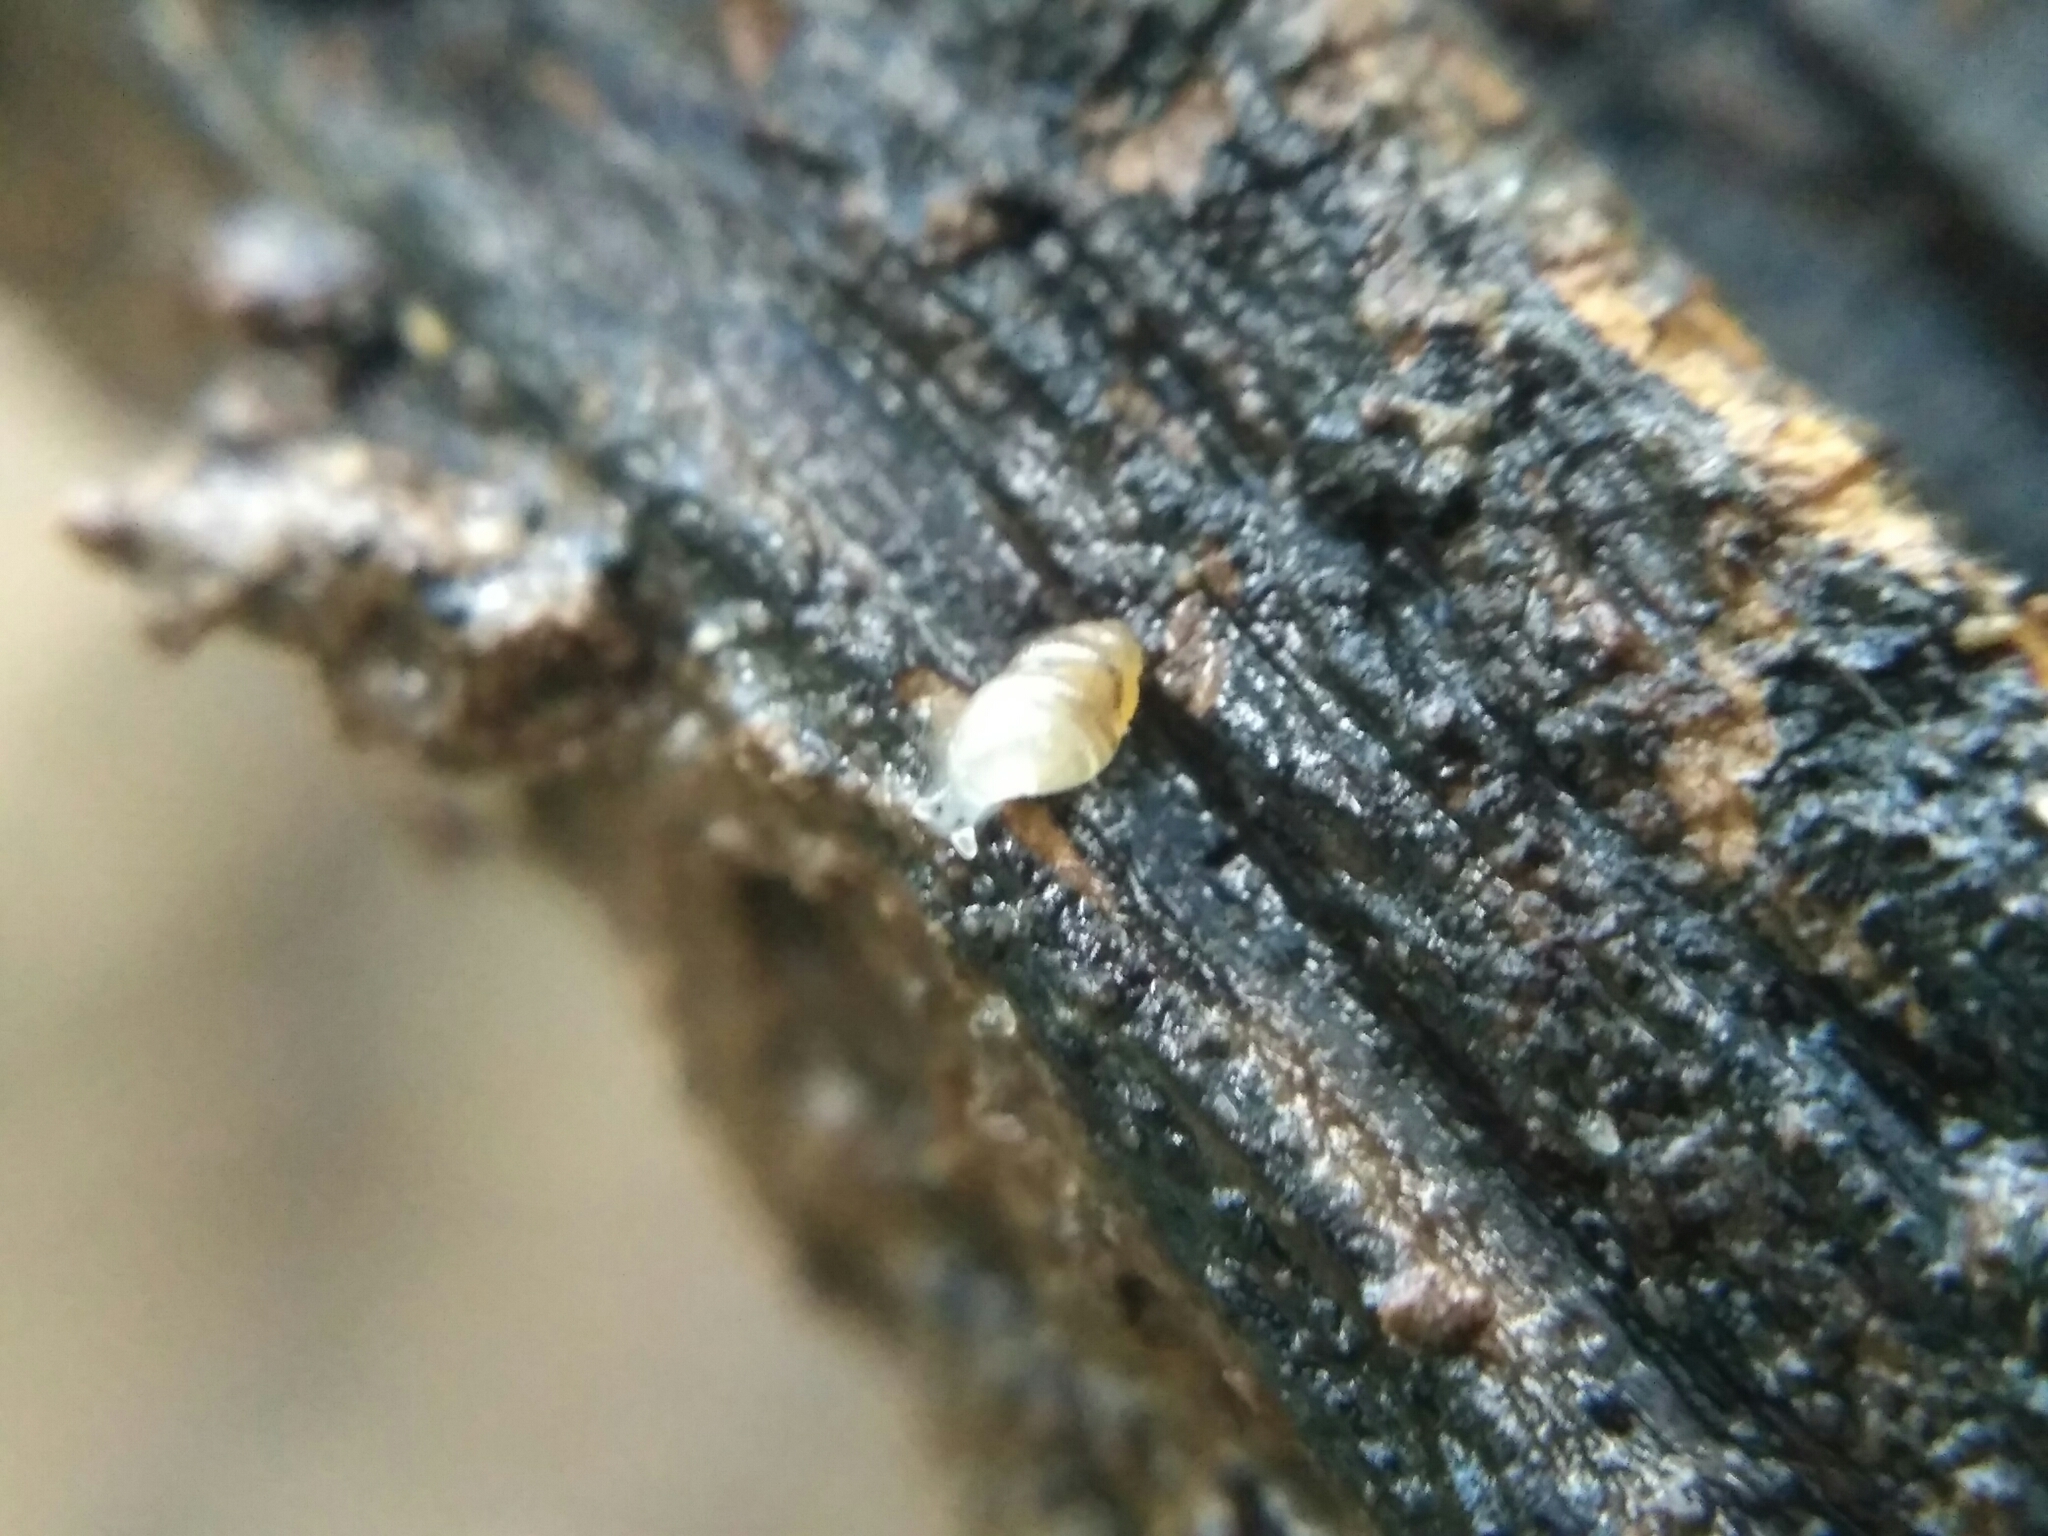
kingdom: Animalia
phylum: Mollusca
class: Gastropoda
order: Ellobiida
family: Ellobiidae
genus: Carychium
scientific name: Carychium minimum
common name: Short-toothed herald snail
